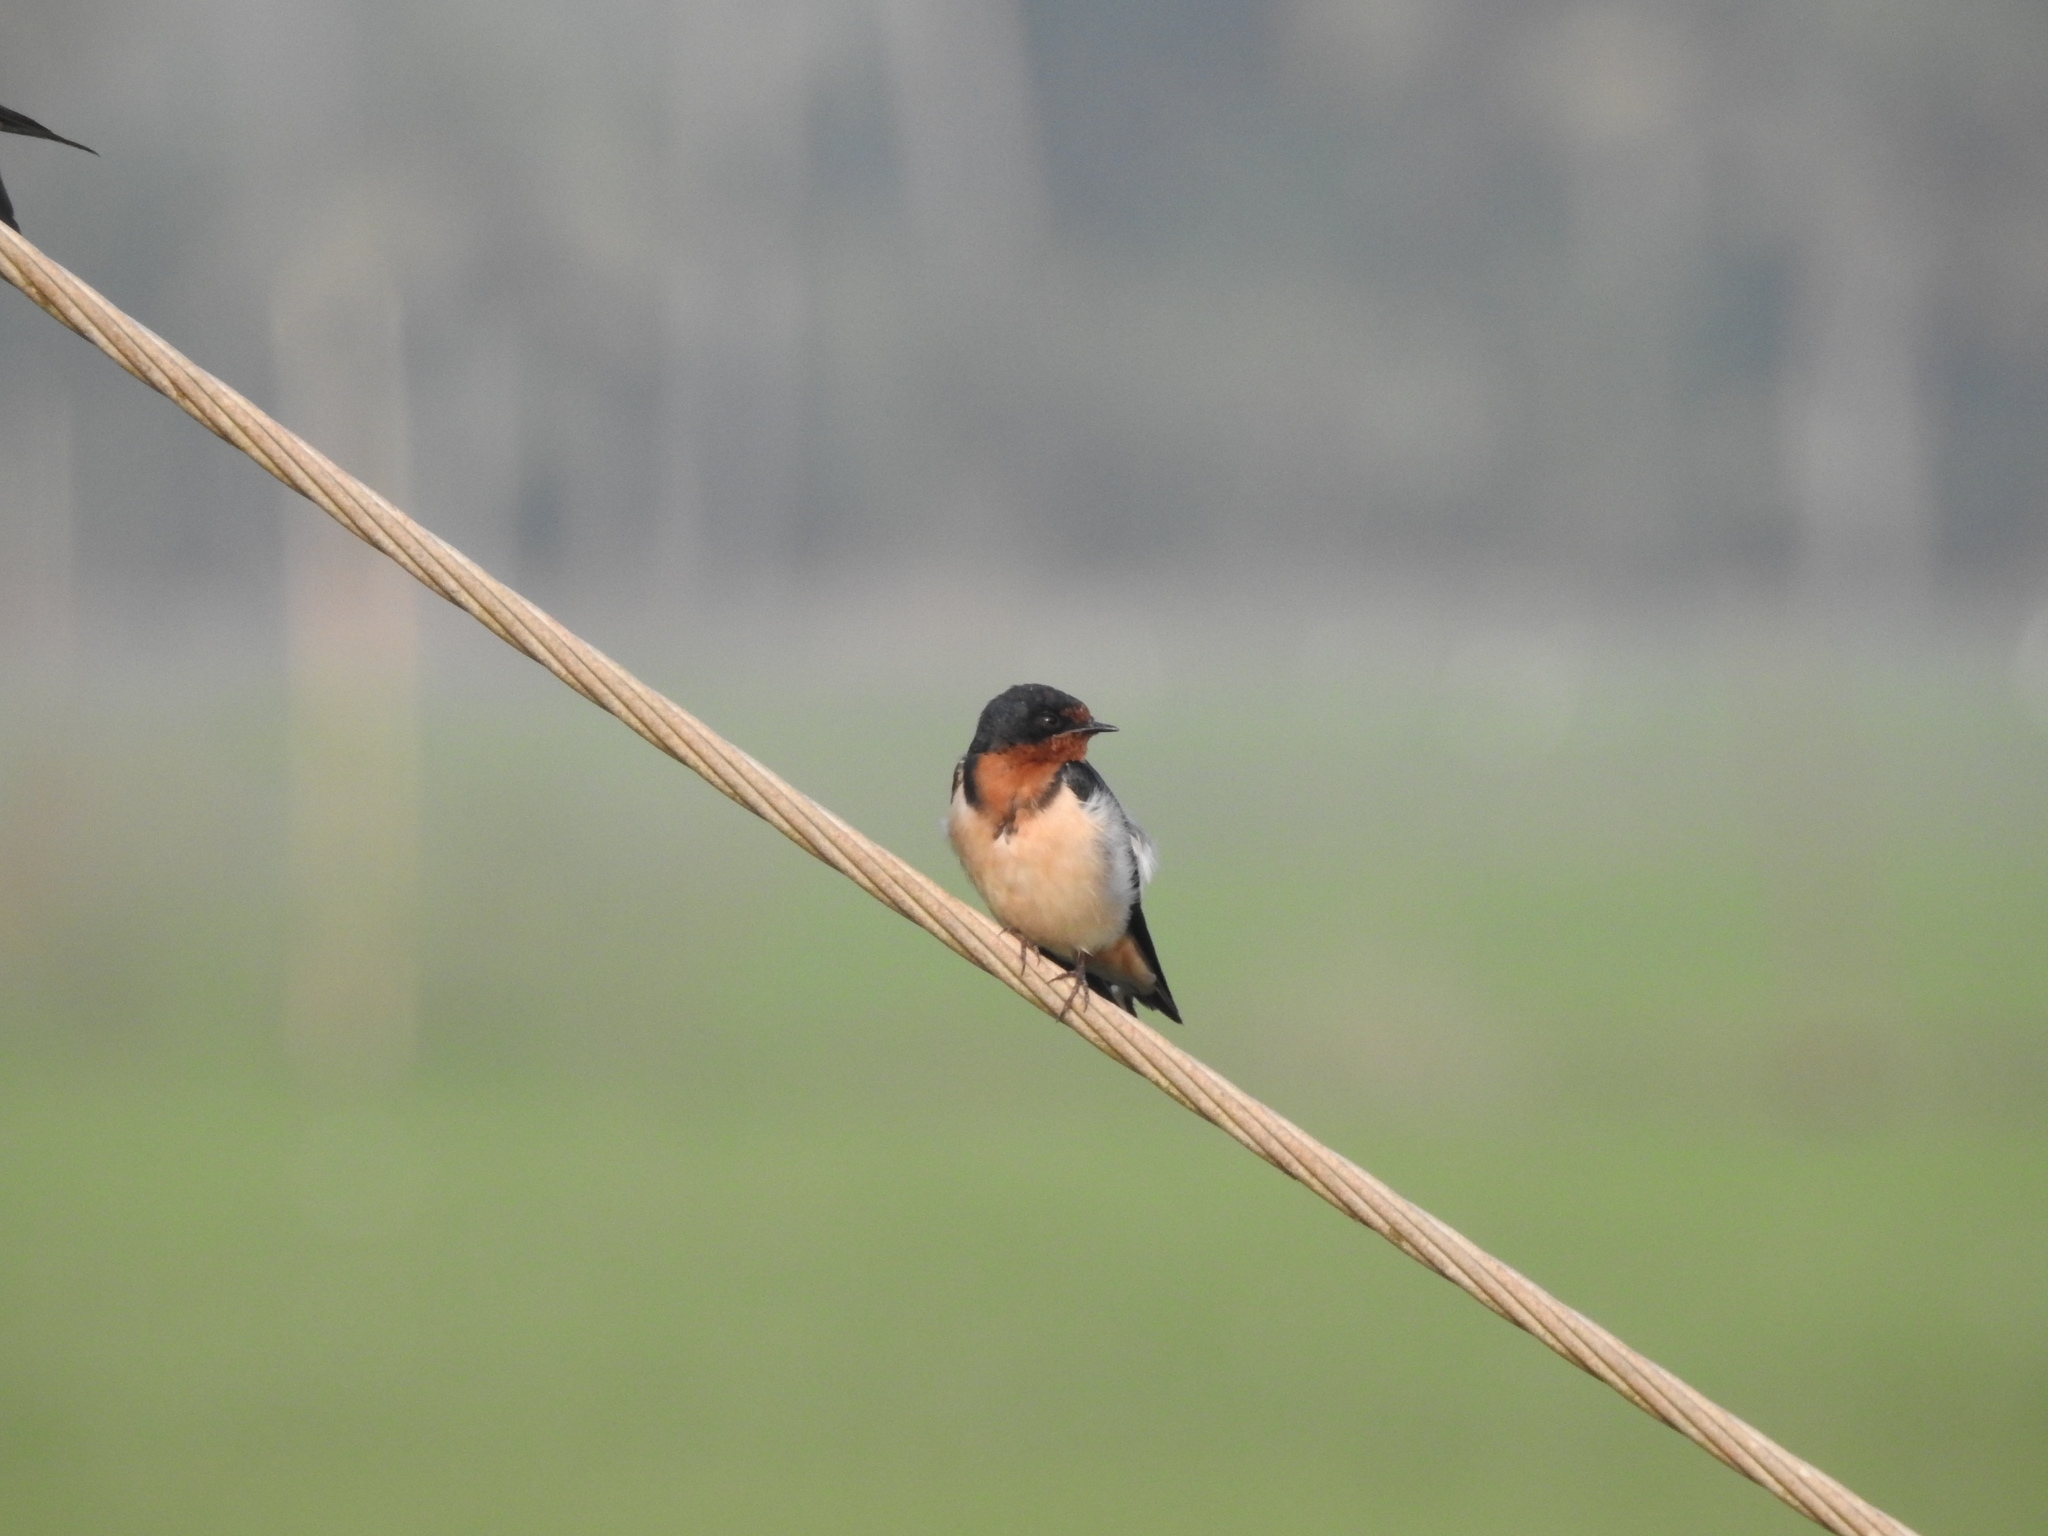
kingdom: Animalia
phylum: Chordata
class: Aves
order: Passeriformes
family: Hirundinidae
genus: Hirundo
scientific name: Hirundo rustica
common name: Barn swallow
